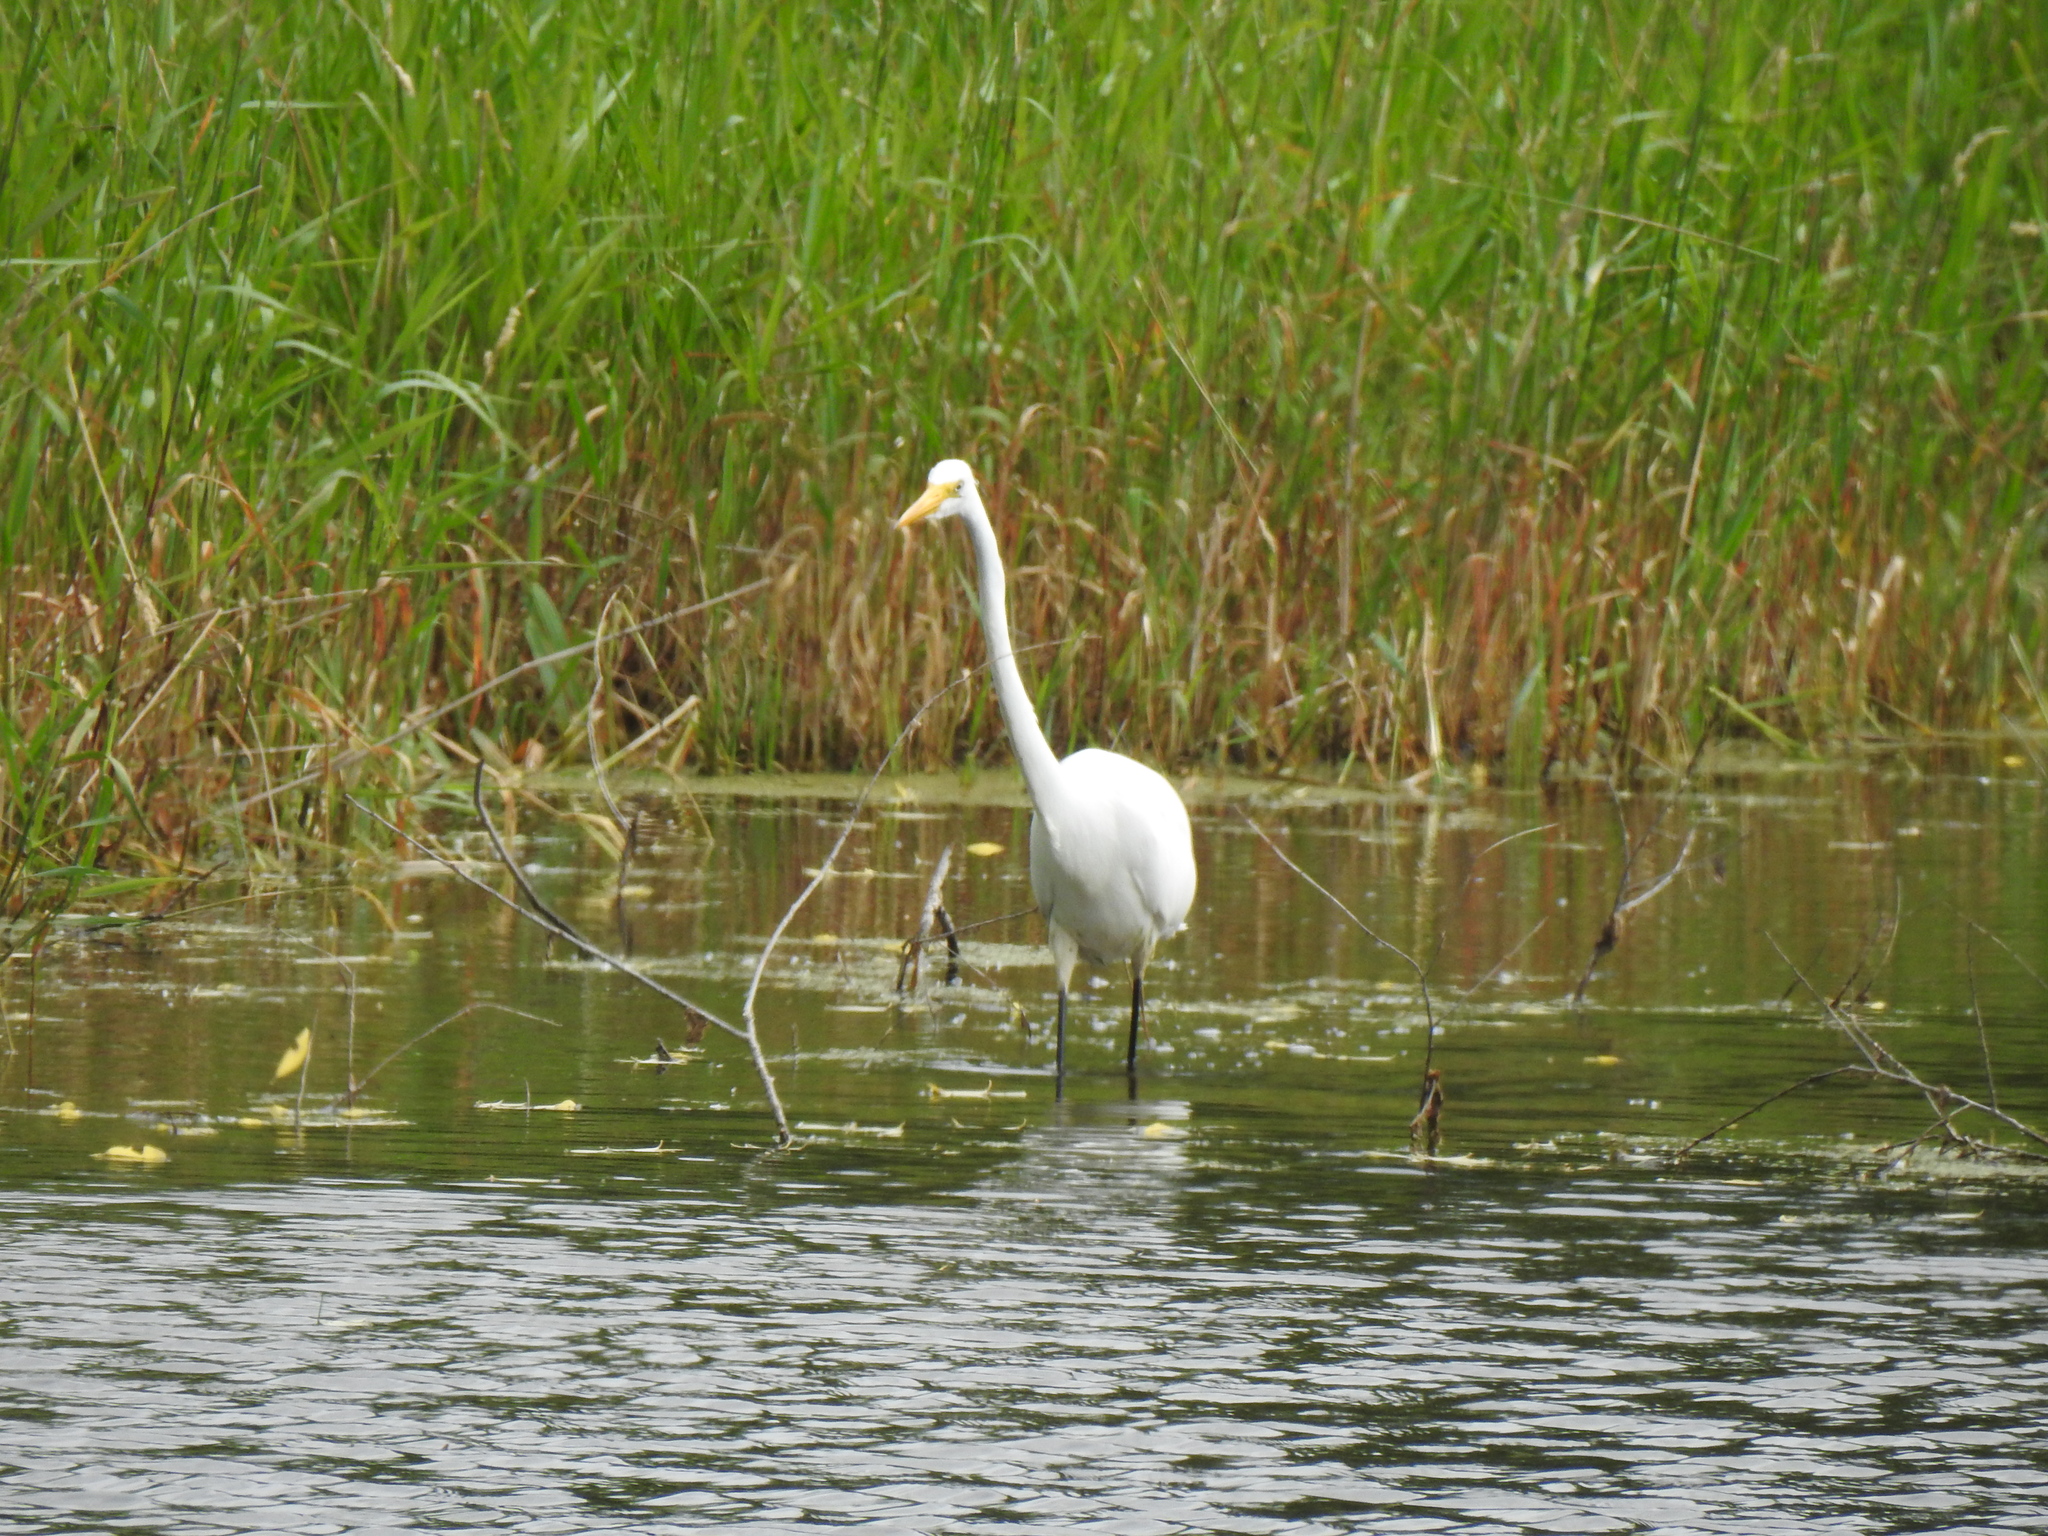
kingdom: Animalia
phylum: Chordata
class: Aves
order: Pelecaniformes
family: Ardeidae
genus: Ardea
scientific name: Ardea alba
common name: Great egret
